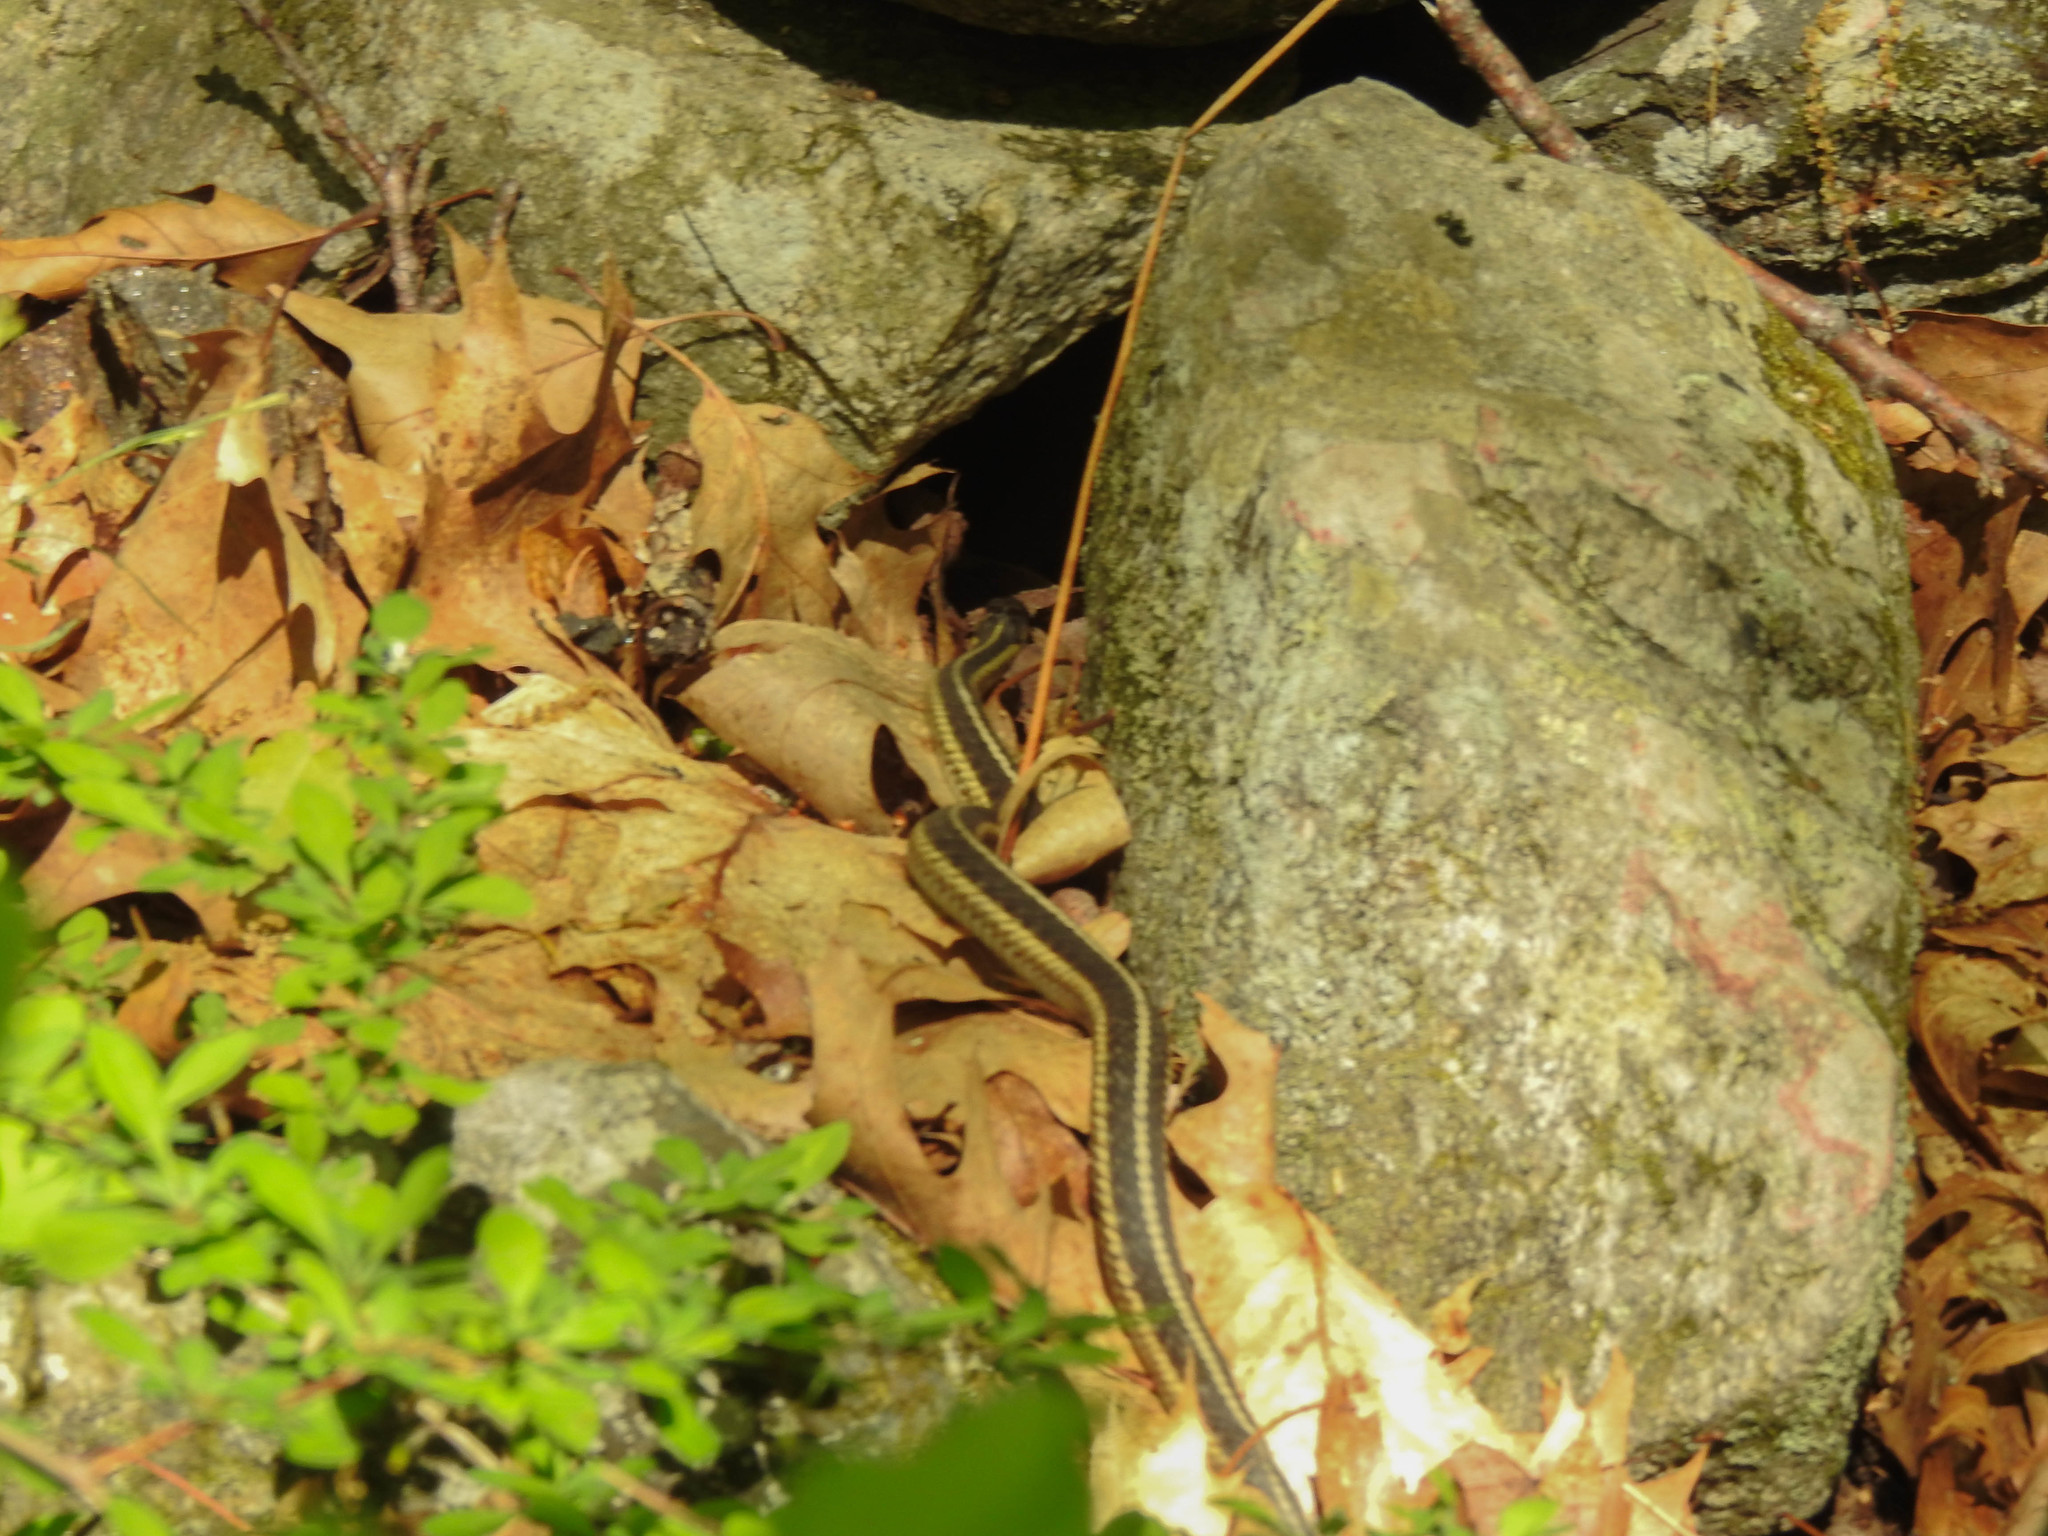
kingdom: Animalia
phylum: Chordata
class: Squamata
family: Colubridae
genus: Thamnophis
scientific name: Thamnophis sirtalis
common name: Common garter snake
